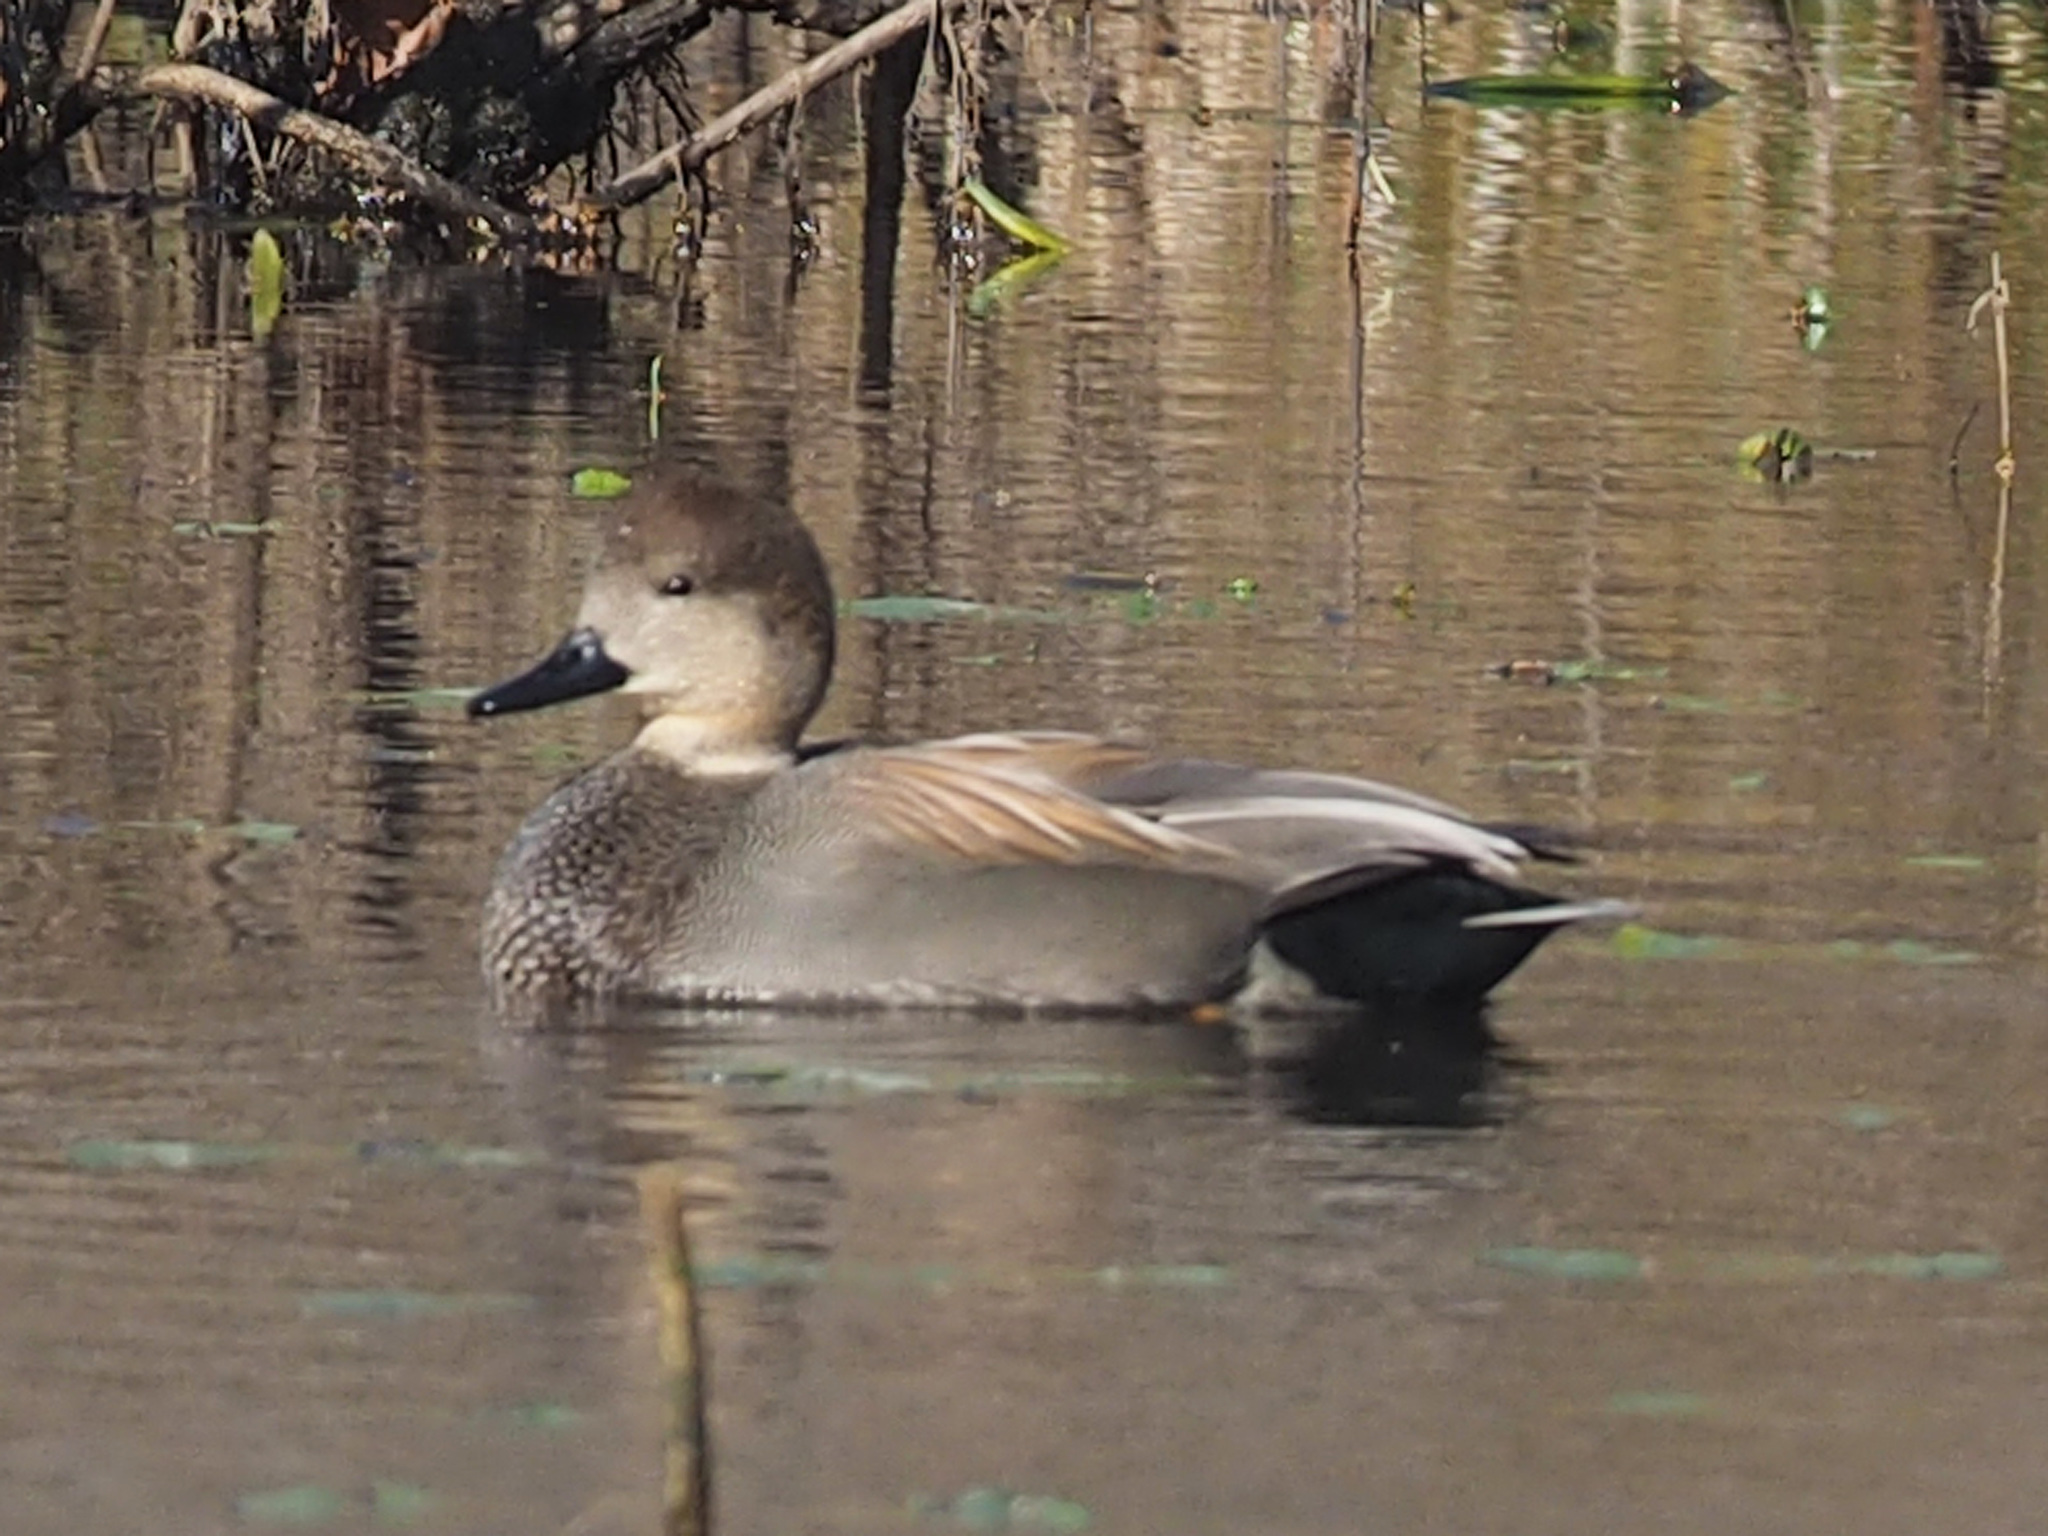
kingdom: Animalia
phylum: Chordata
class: Aves
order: Anseriformes
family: Anatidae
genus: Mareca
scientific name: Mareca strepera
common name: Gadwall
